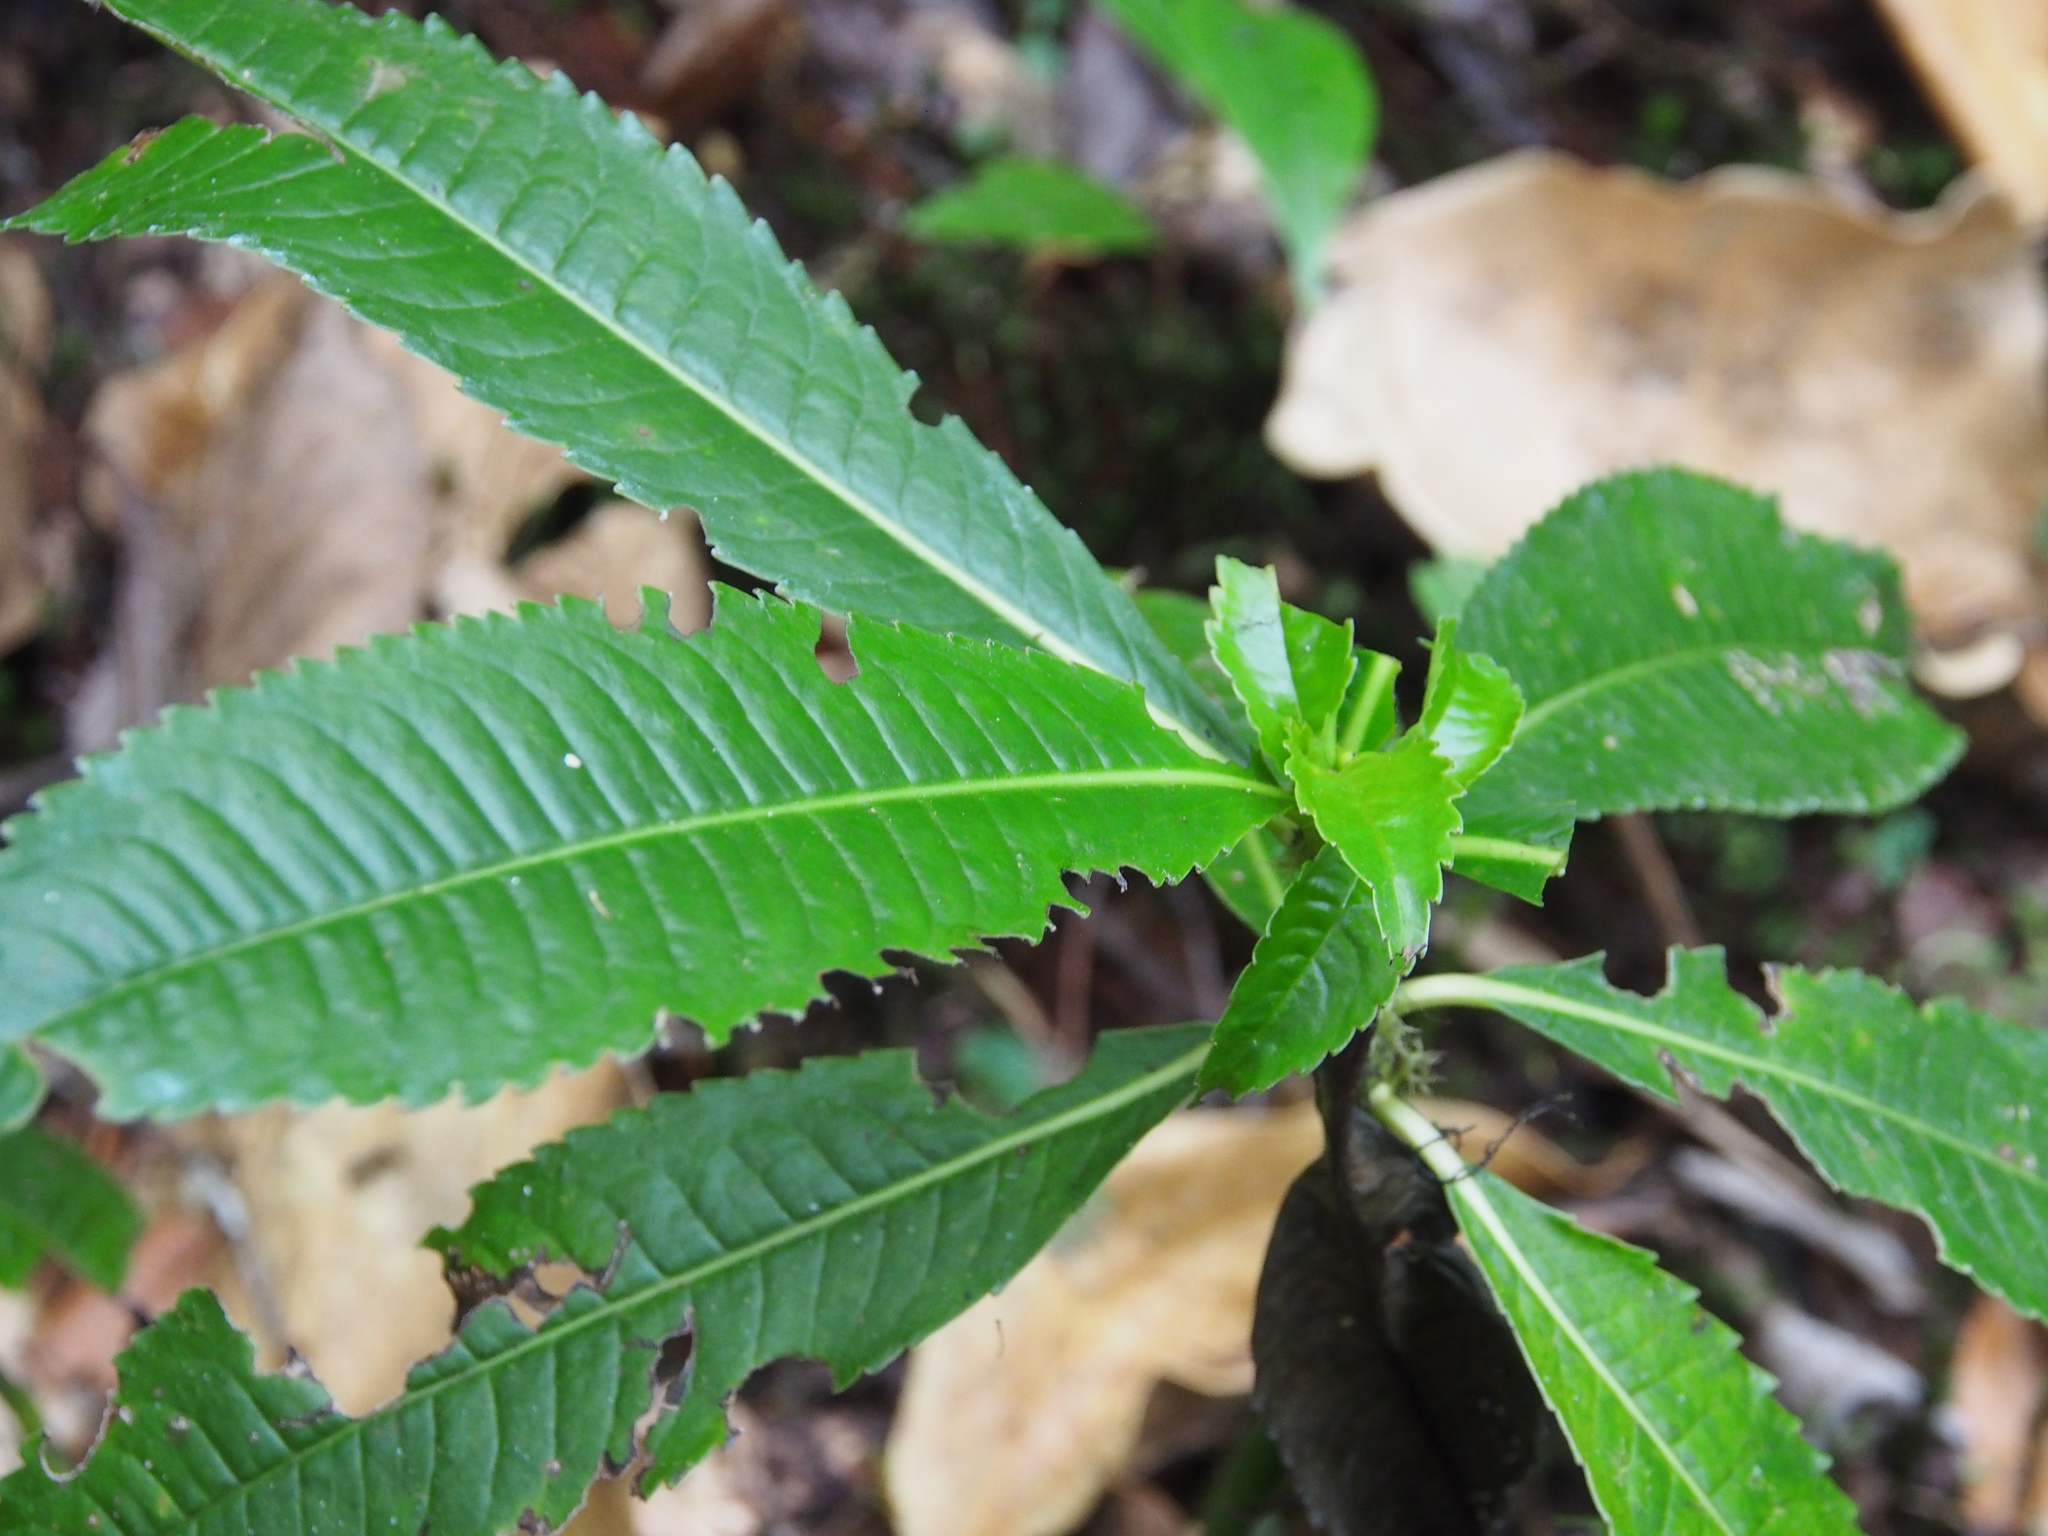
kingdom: Plantae
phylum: Tracheophyta
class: Magnoliopsida
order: Chloranthales
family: Chloranthaceae
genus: Hedyosmum
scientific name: Hedyosmum mexicanum
